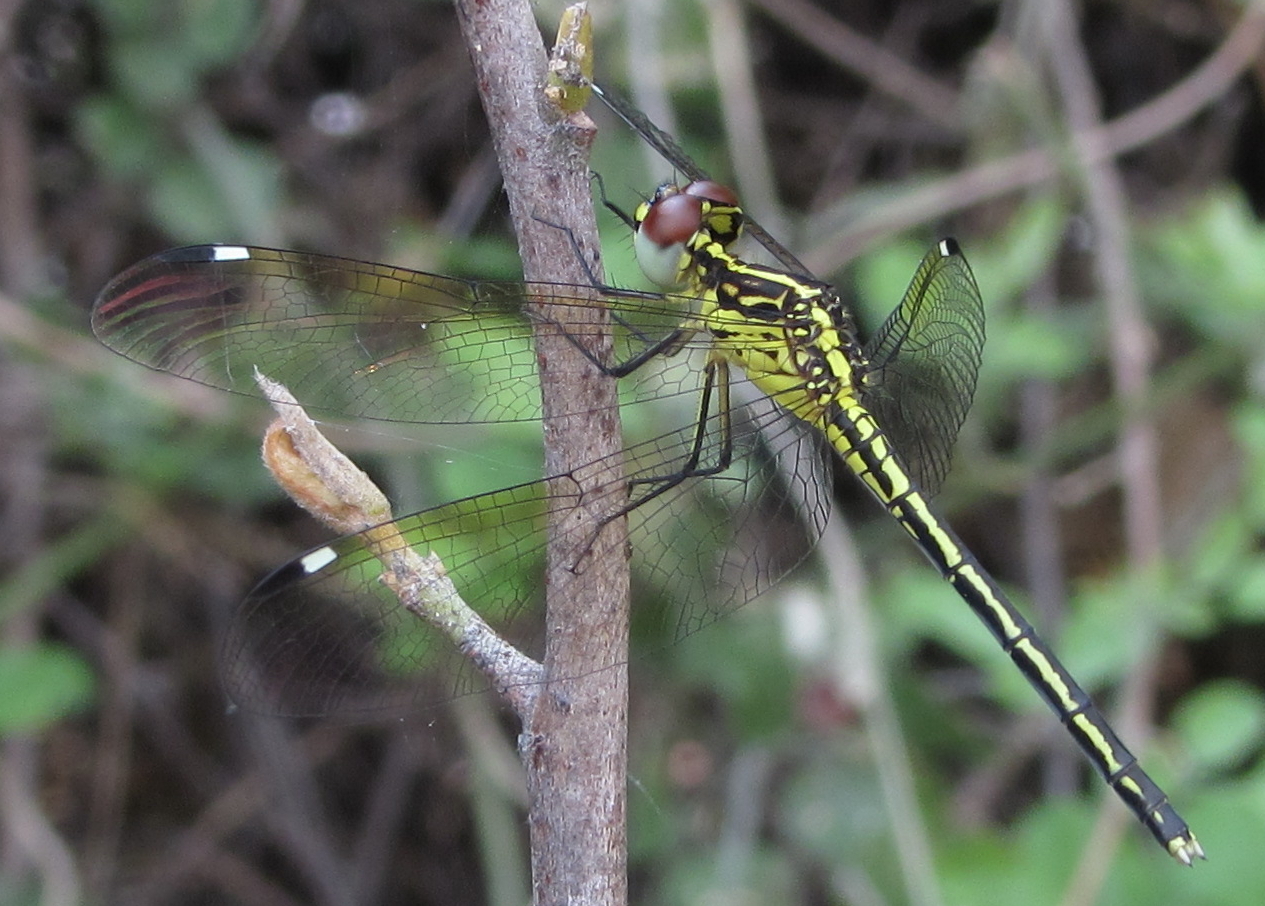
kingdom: Animalia
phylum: Arthropoda
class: Insecta
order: Odonata
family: Libellulidae
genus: Hemistigma
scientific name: Hemistigma albipunctum
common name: African pied-spot
